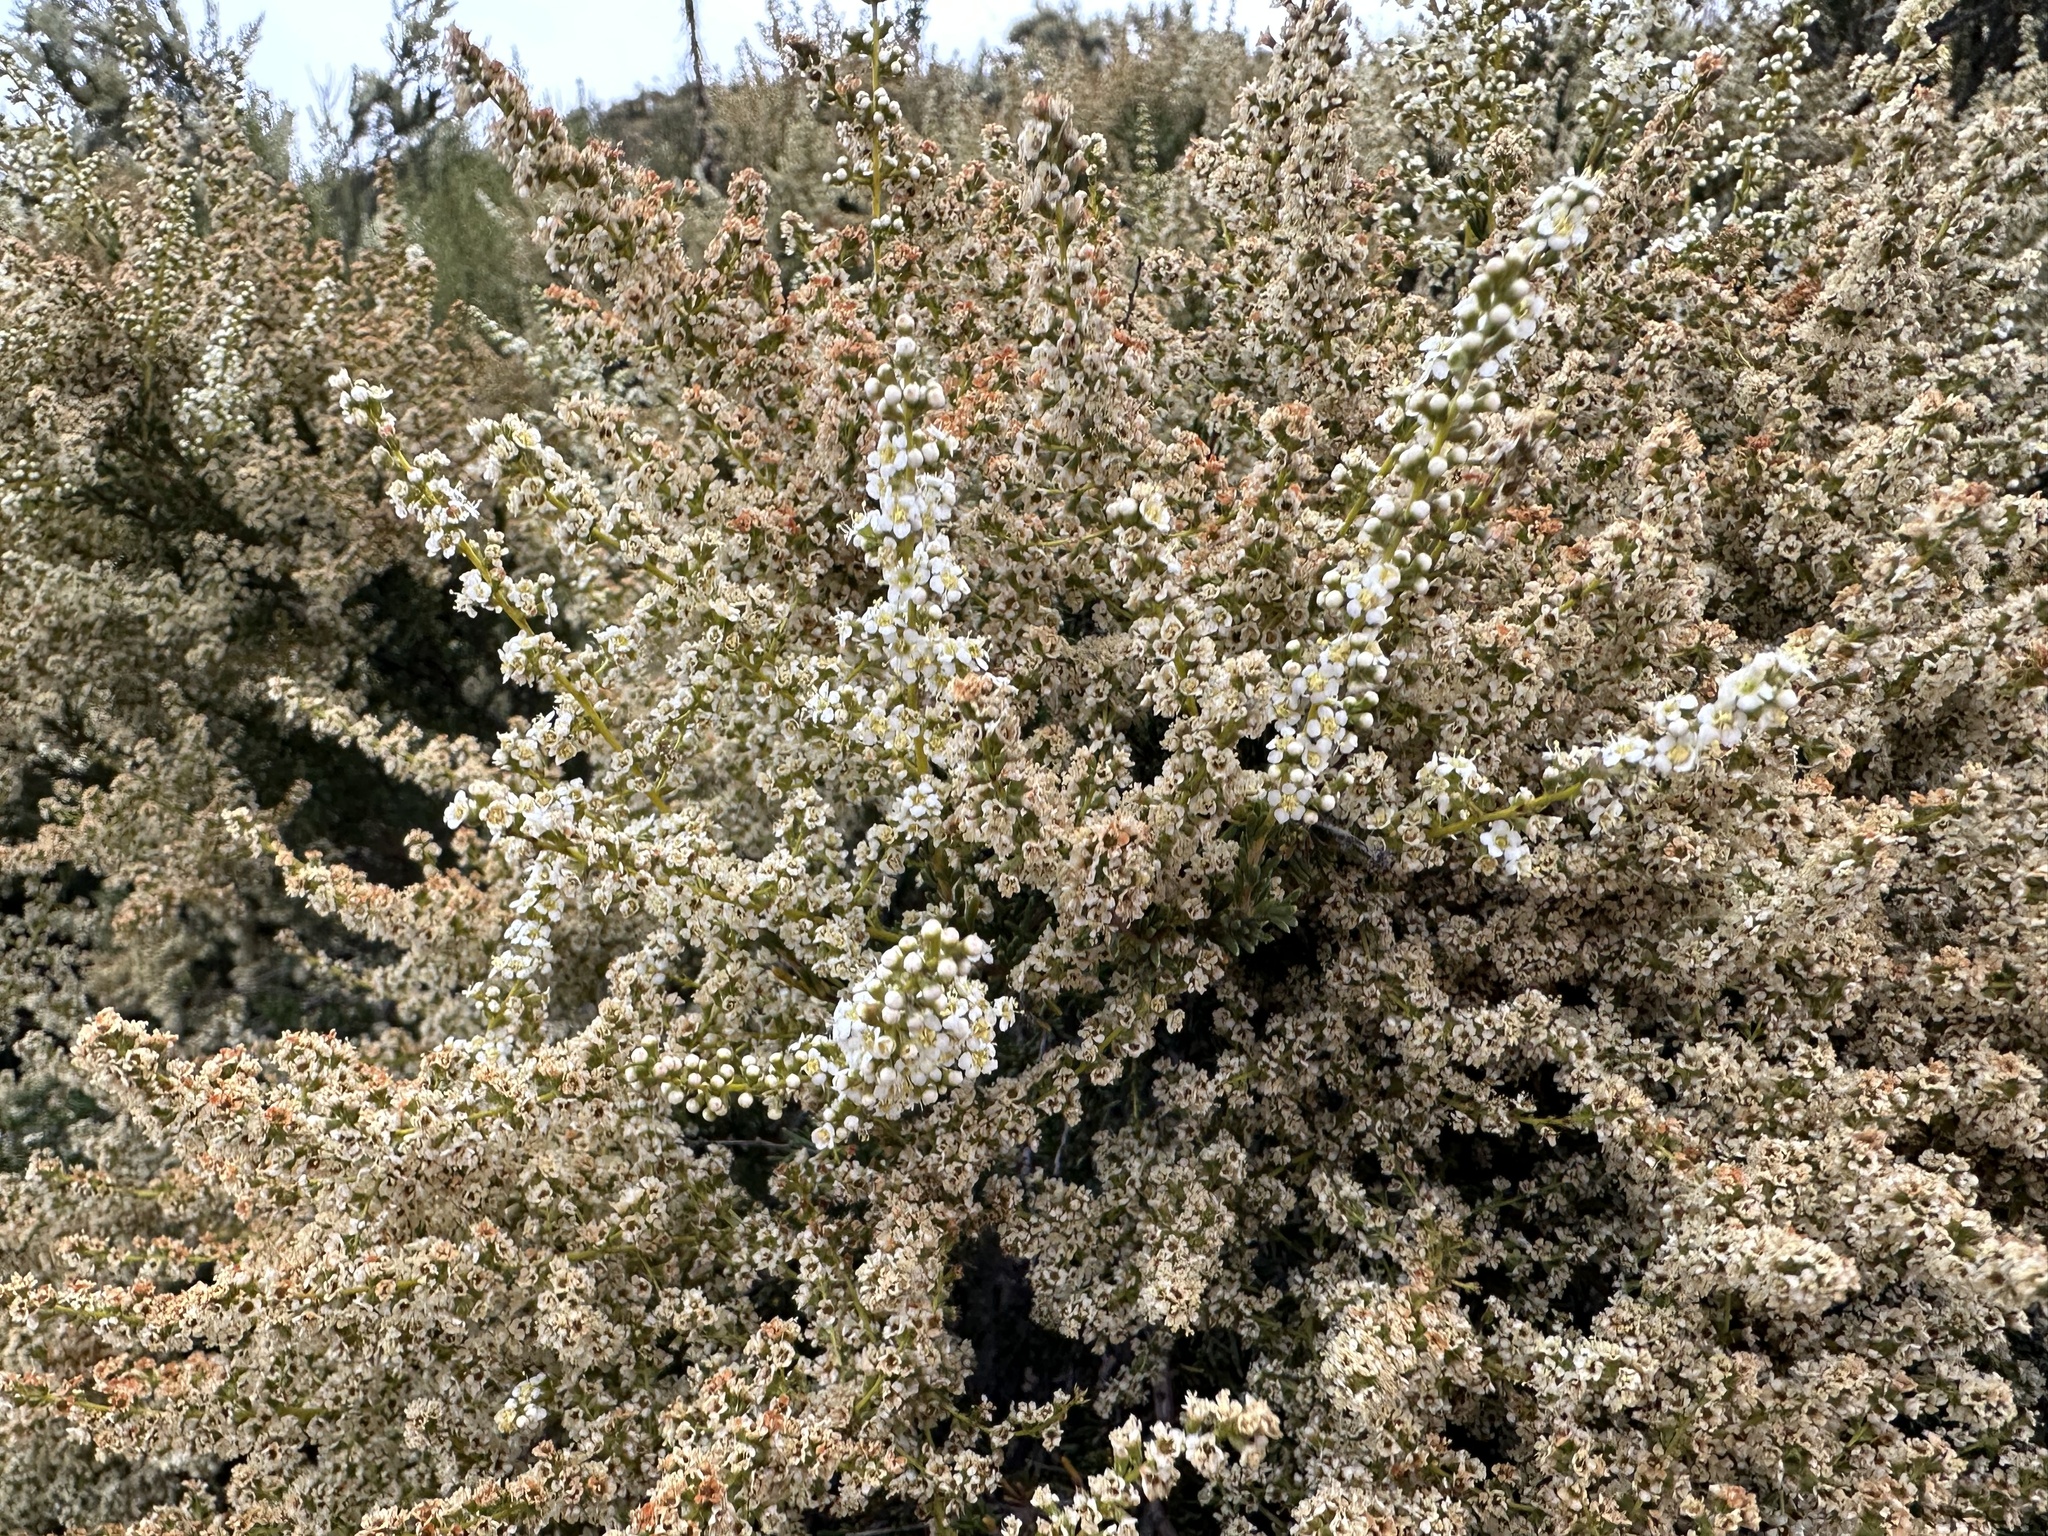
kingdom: Plantae
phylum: Tracheophyta
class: Magnoliopsida
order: Rosales
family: Rosaceae
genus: Adenostoma
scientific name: Adenostoma fasciculatum
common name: Chamise
